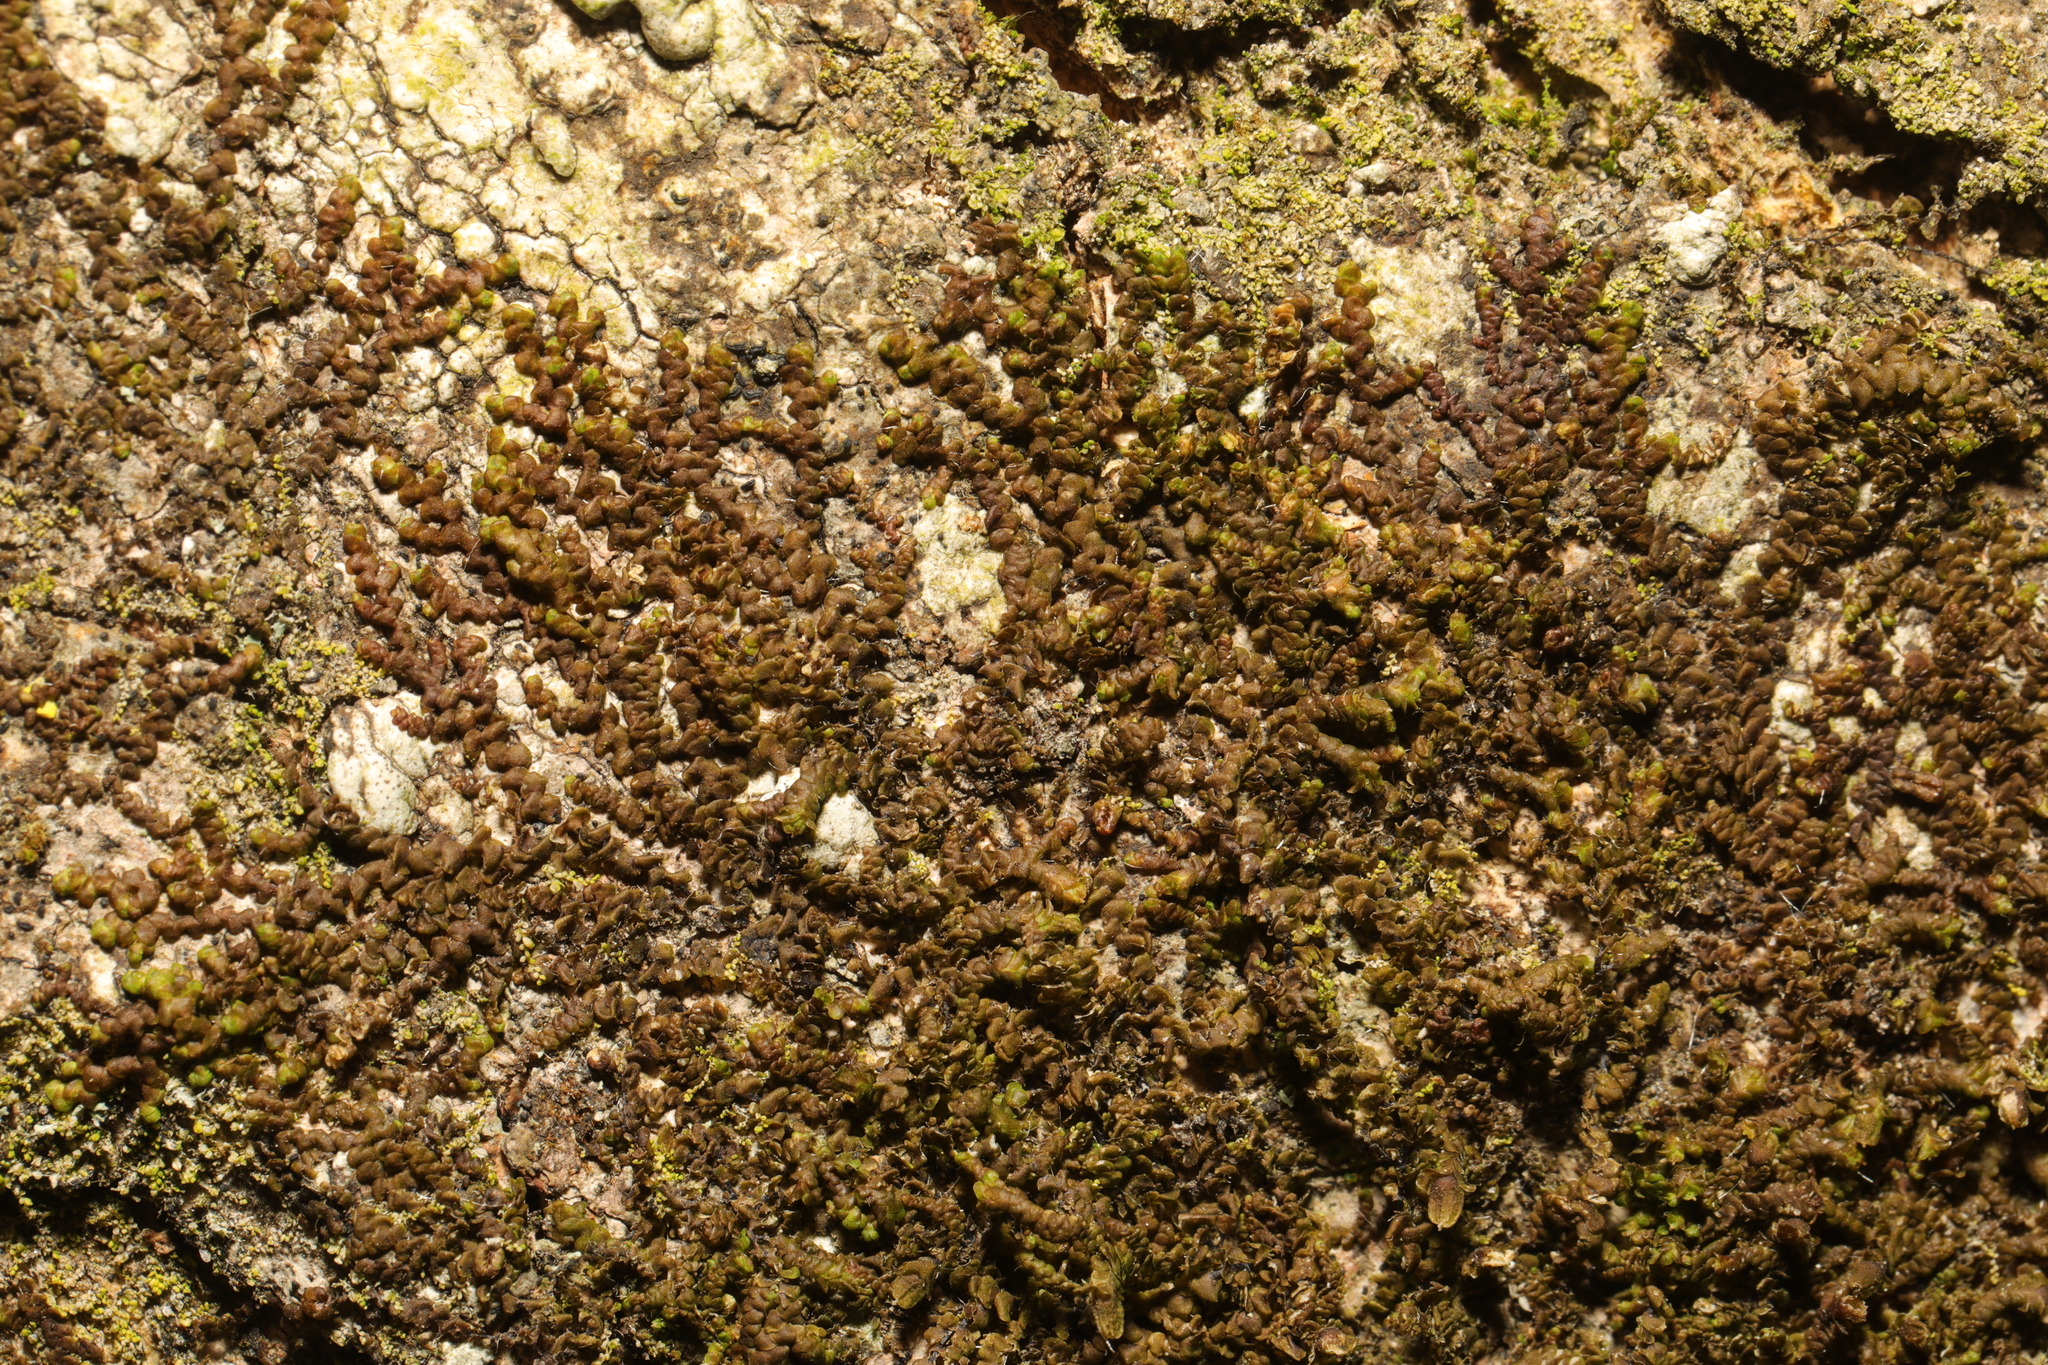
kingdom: Plantae
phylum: Marchantiophyta
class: Jungermanniopsida
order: Porellales
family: Frullaniaceae
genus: Frullania
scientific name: Frullania dilatata
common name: Dilated scalewort
